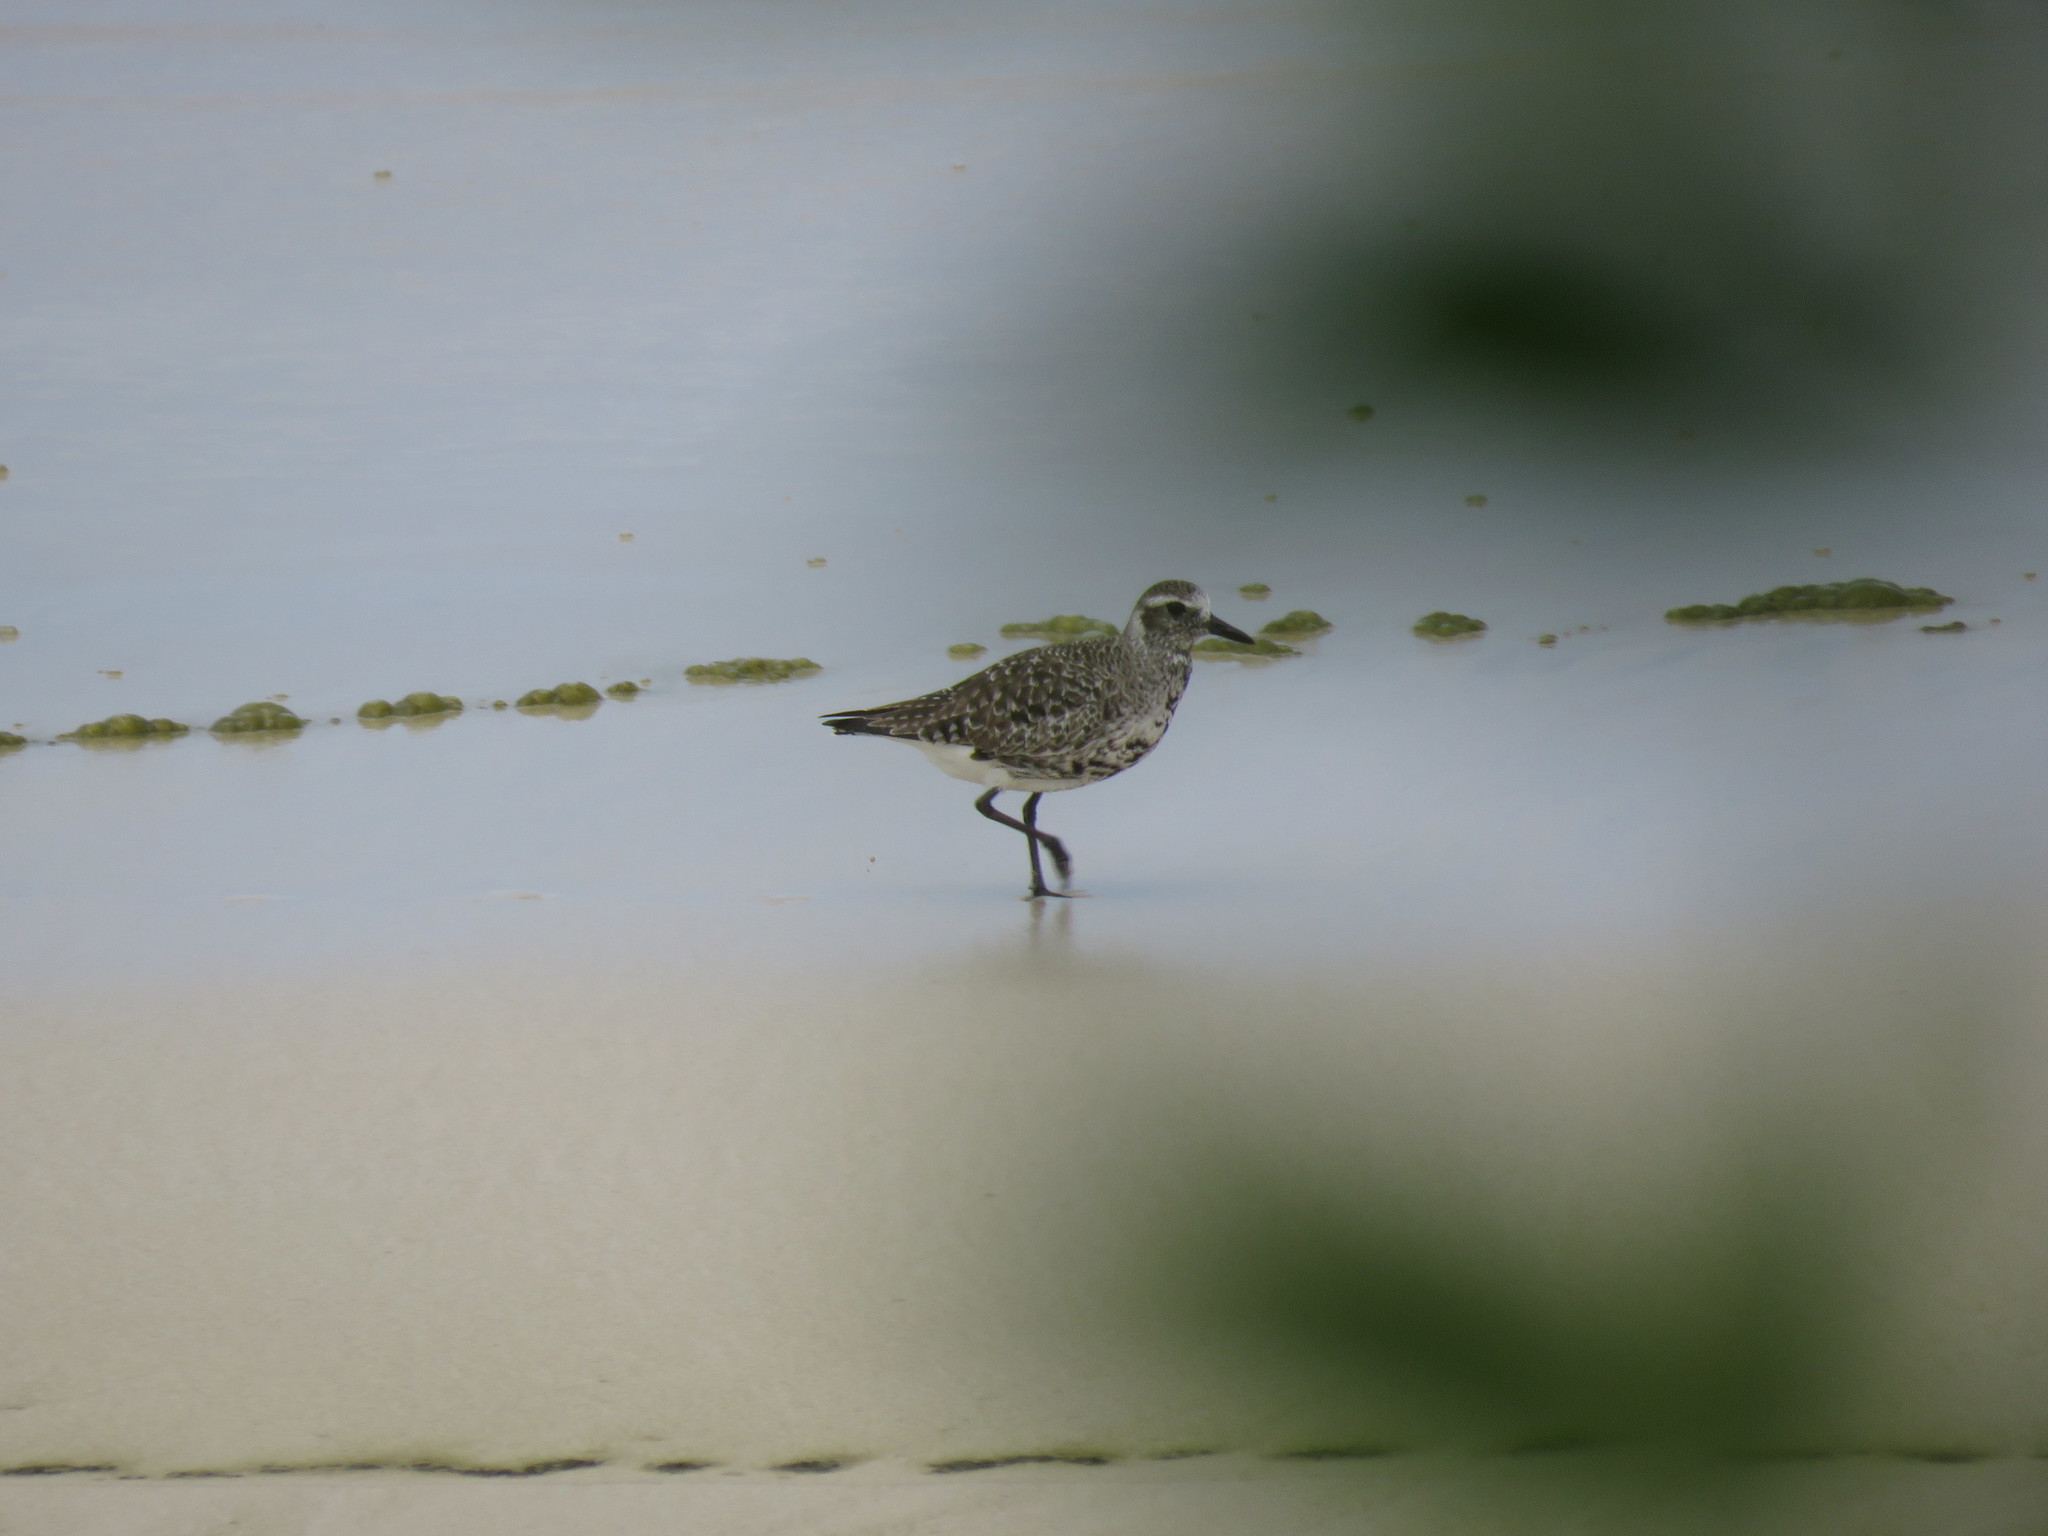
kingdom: Animalia
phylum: Chordata
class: Aves
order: Charadriiformes
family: Charadriidae
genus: Pluvialis
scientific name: Pluvialis squatarola
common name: Grey plover
